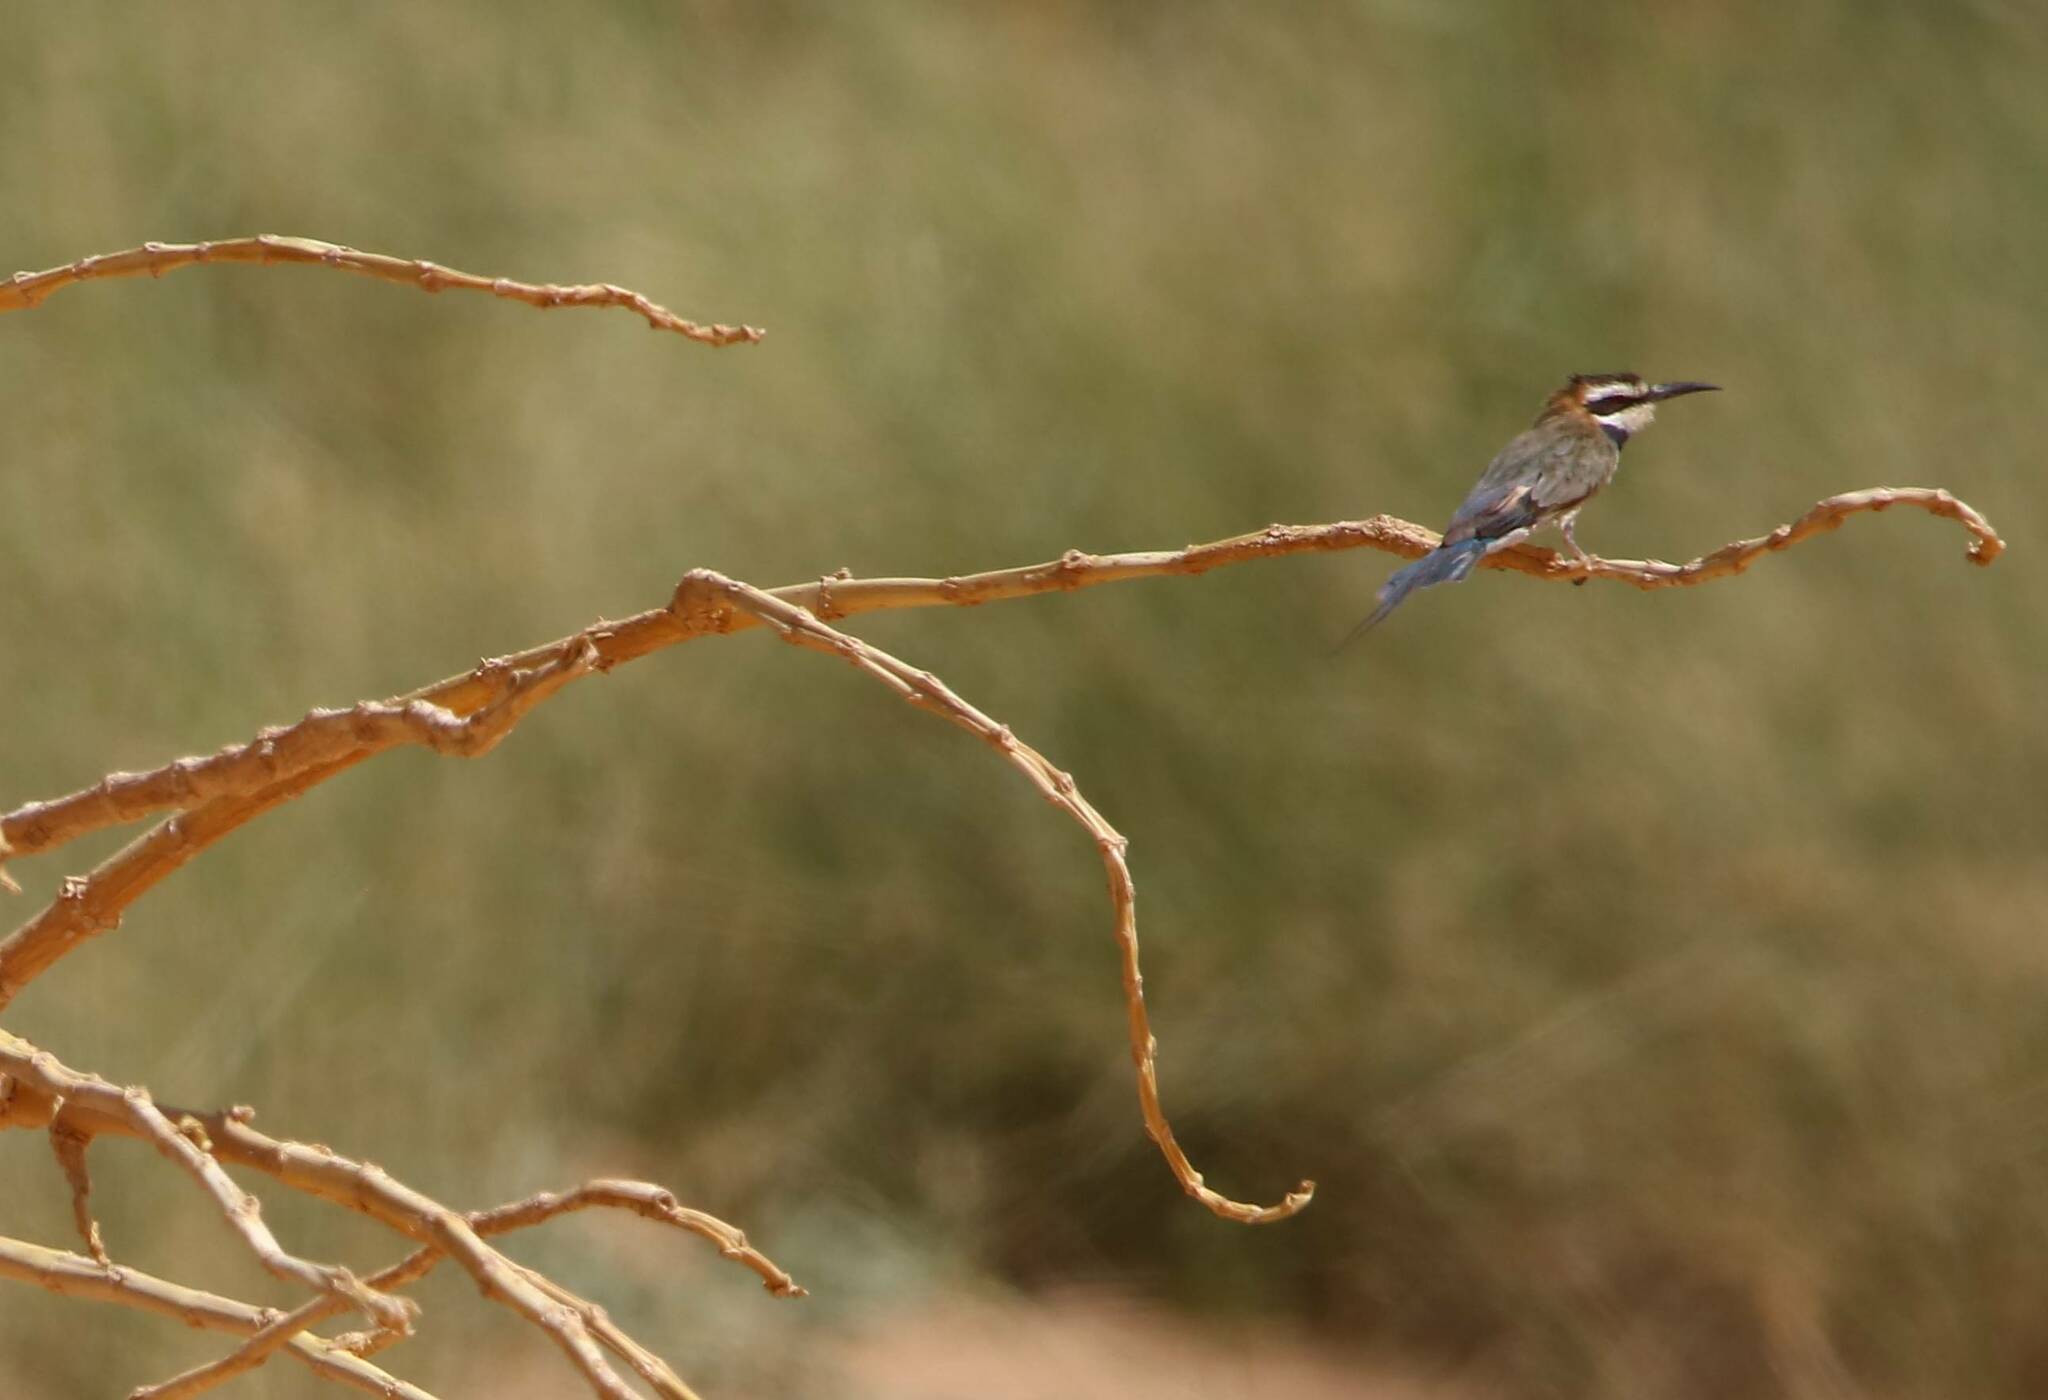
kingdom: Animalia
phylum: Chordata
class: Aves
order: Coraciiformes
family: Meropidae
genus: Merops
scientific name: Merops albicollis
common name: White-throated bee-eater
